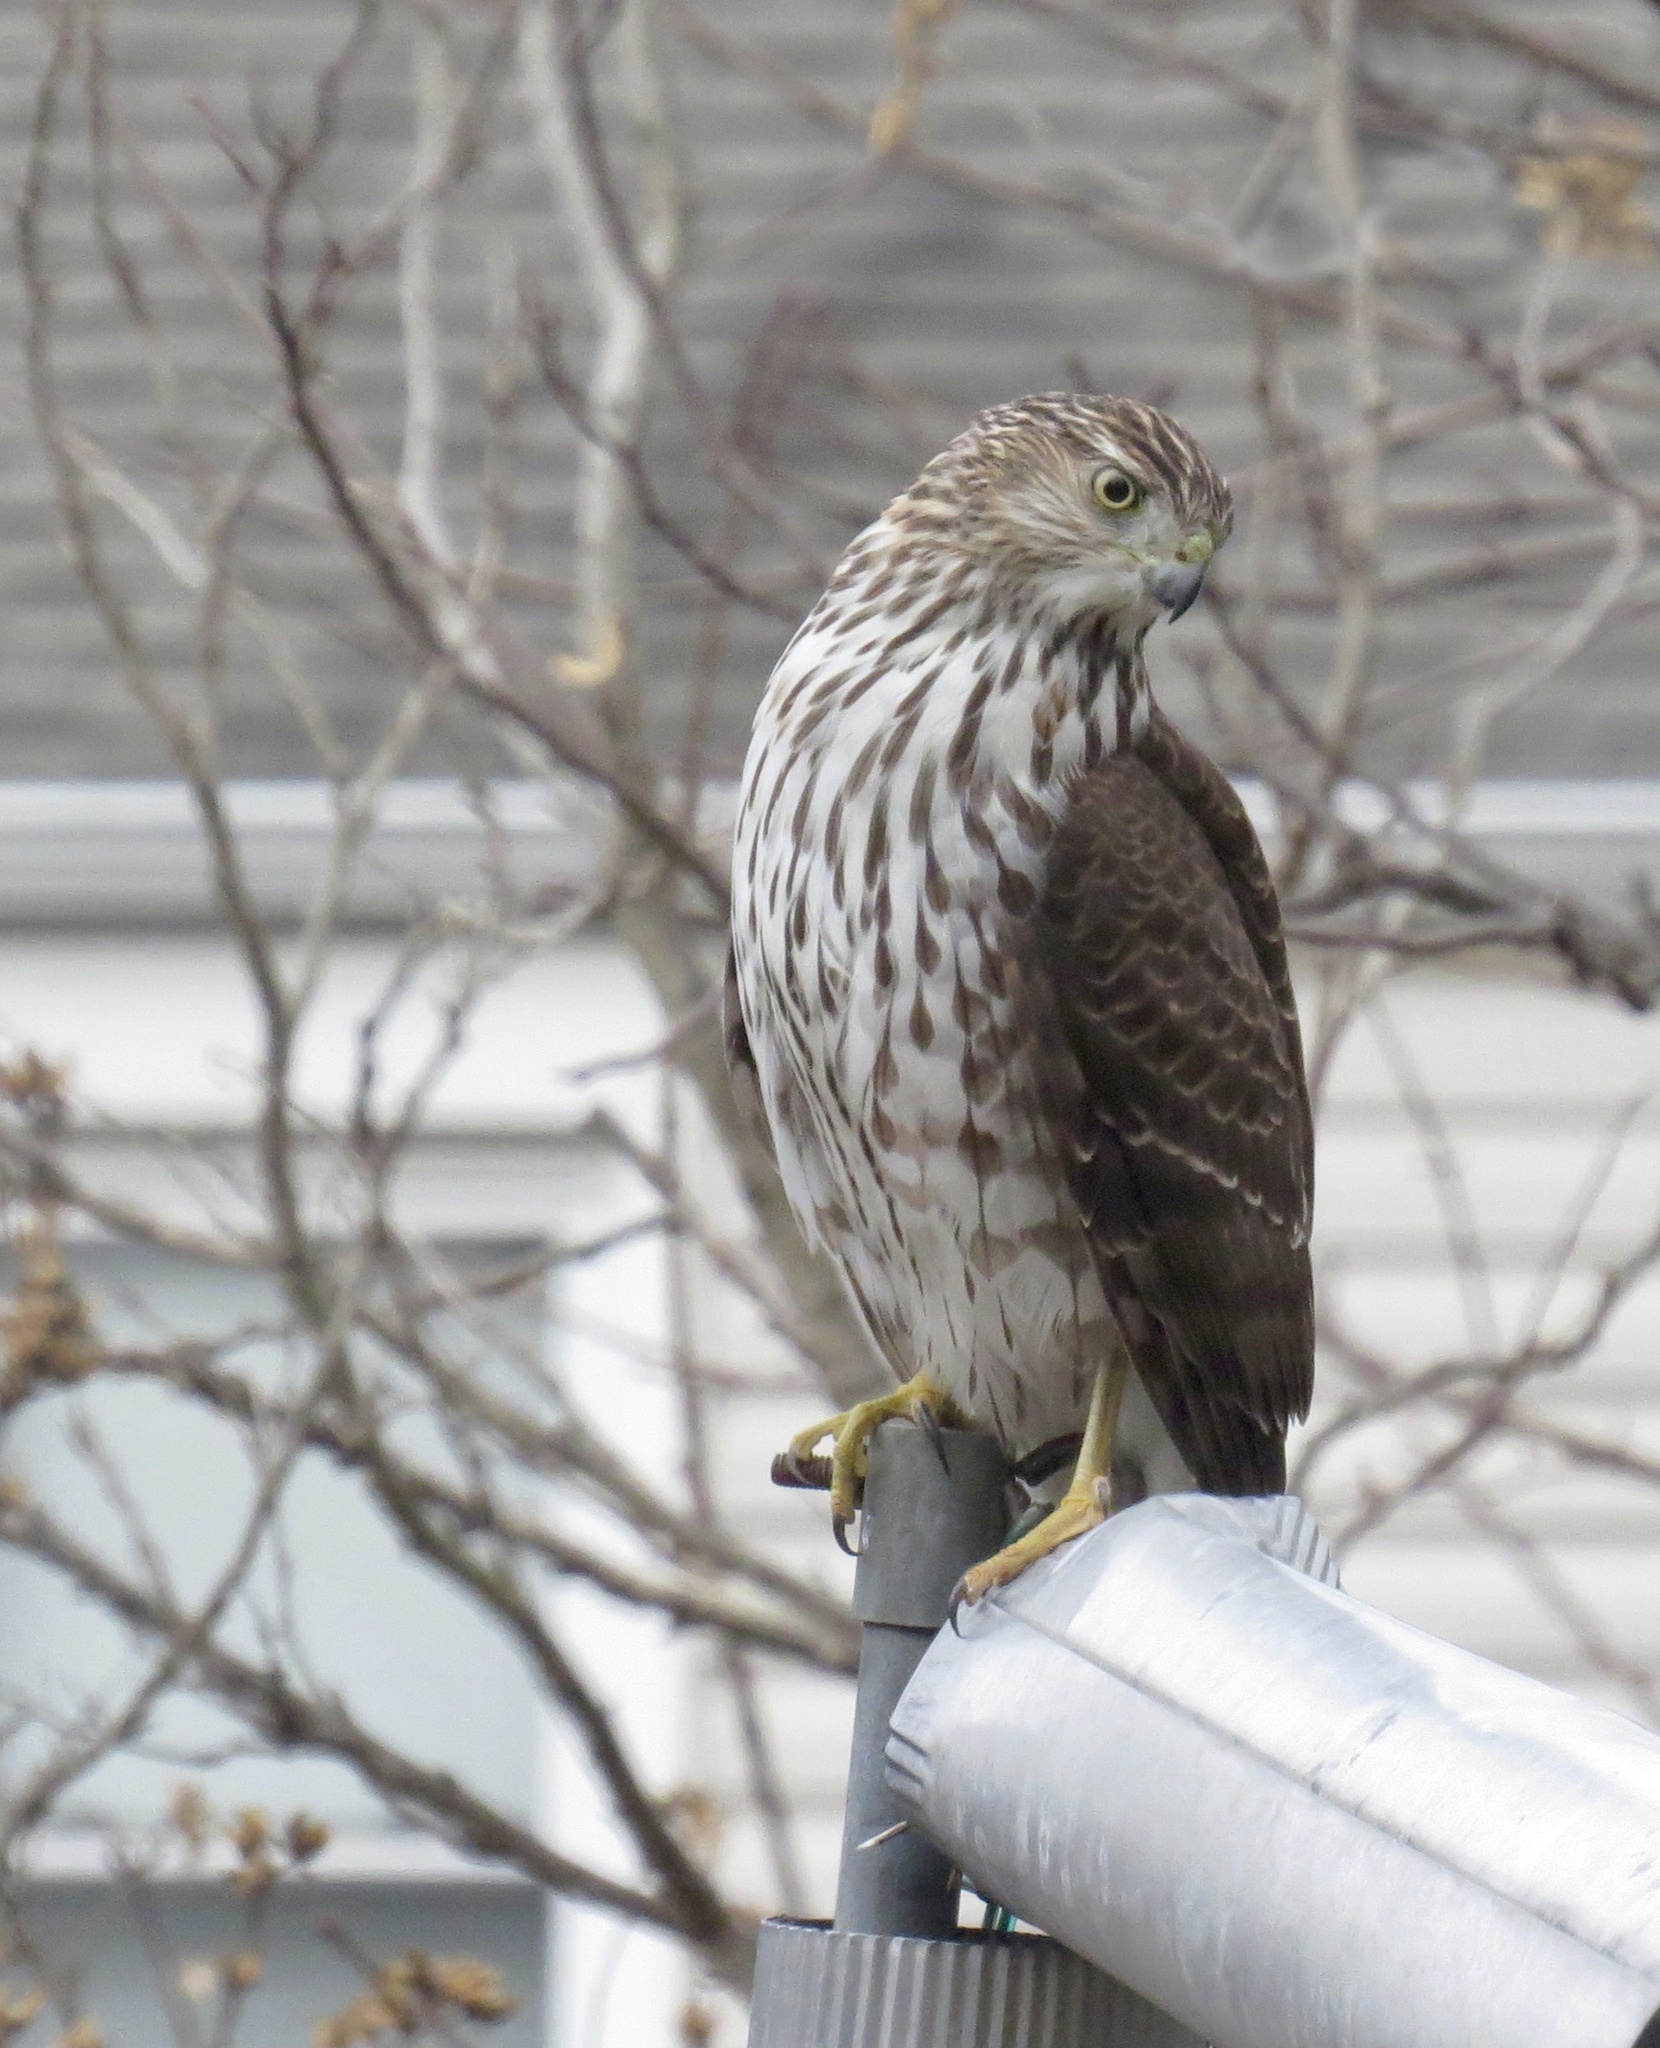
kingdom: Animalia
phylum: Chordata
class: Aves
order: Accipitriformes
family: Accipitridae
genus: Accipiter
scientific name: Accipiter cooperii
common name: Cooper's hawk
